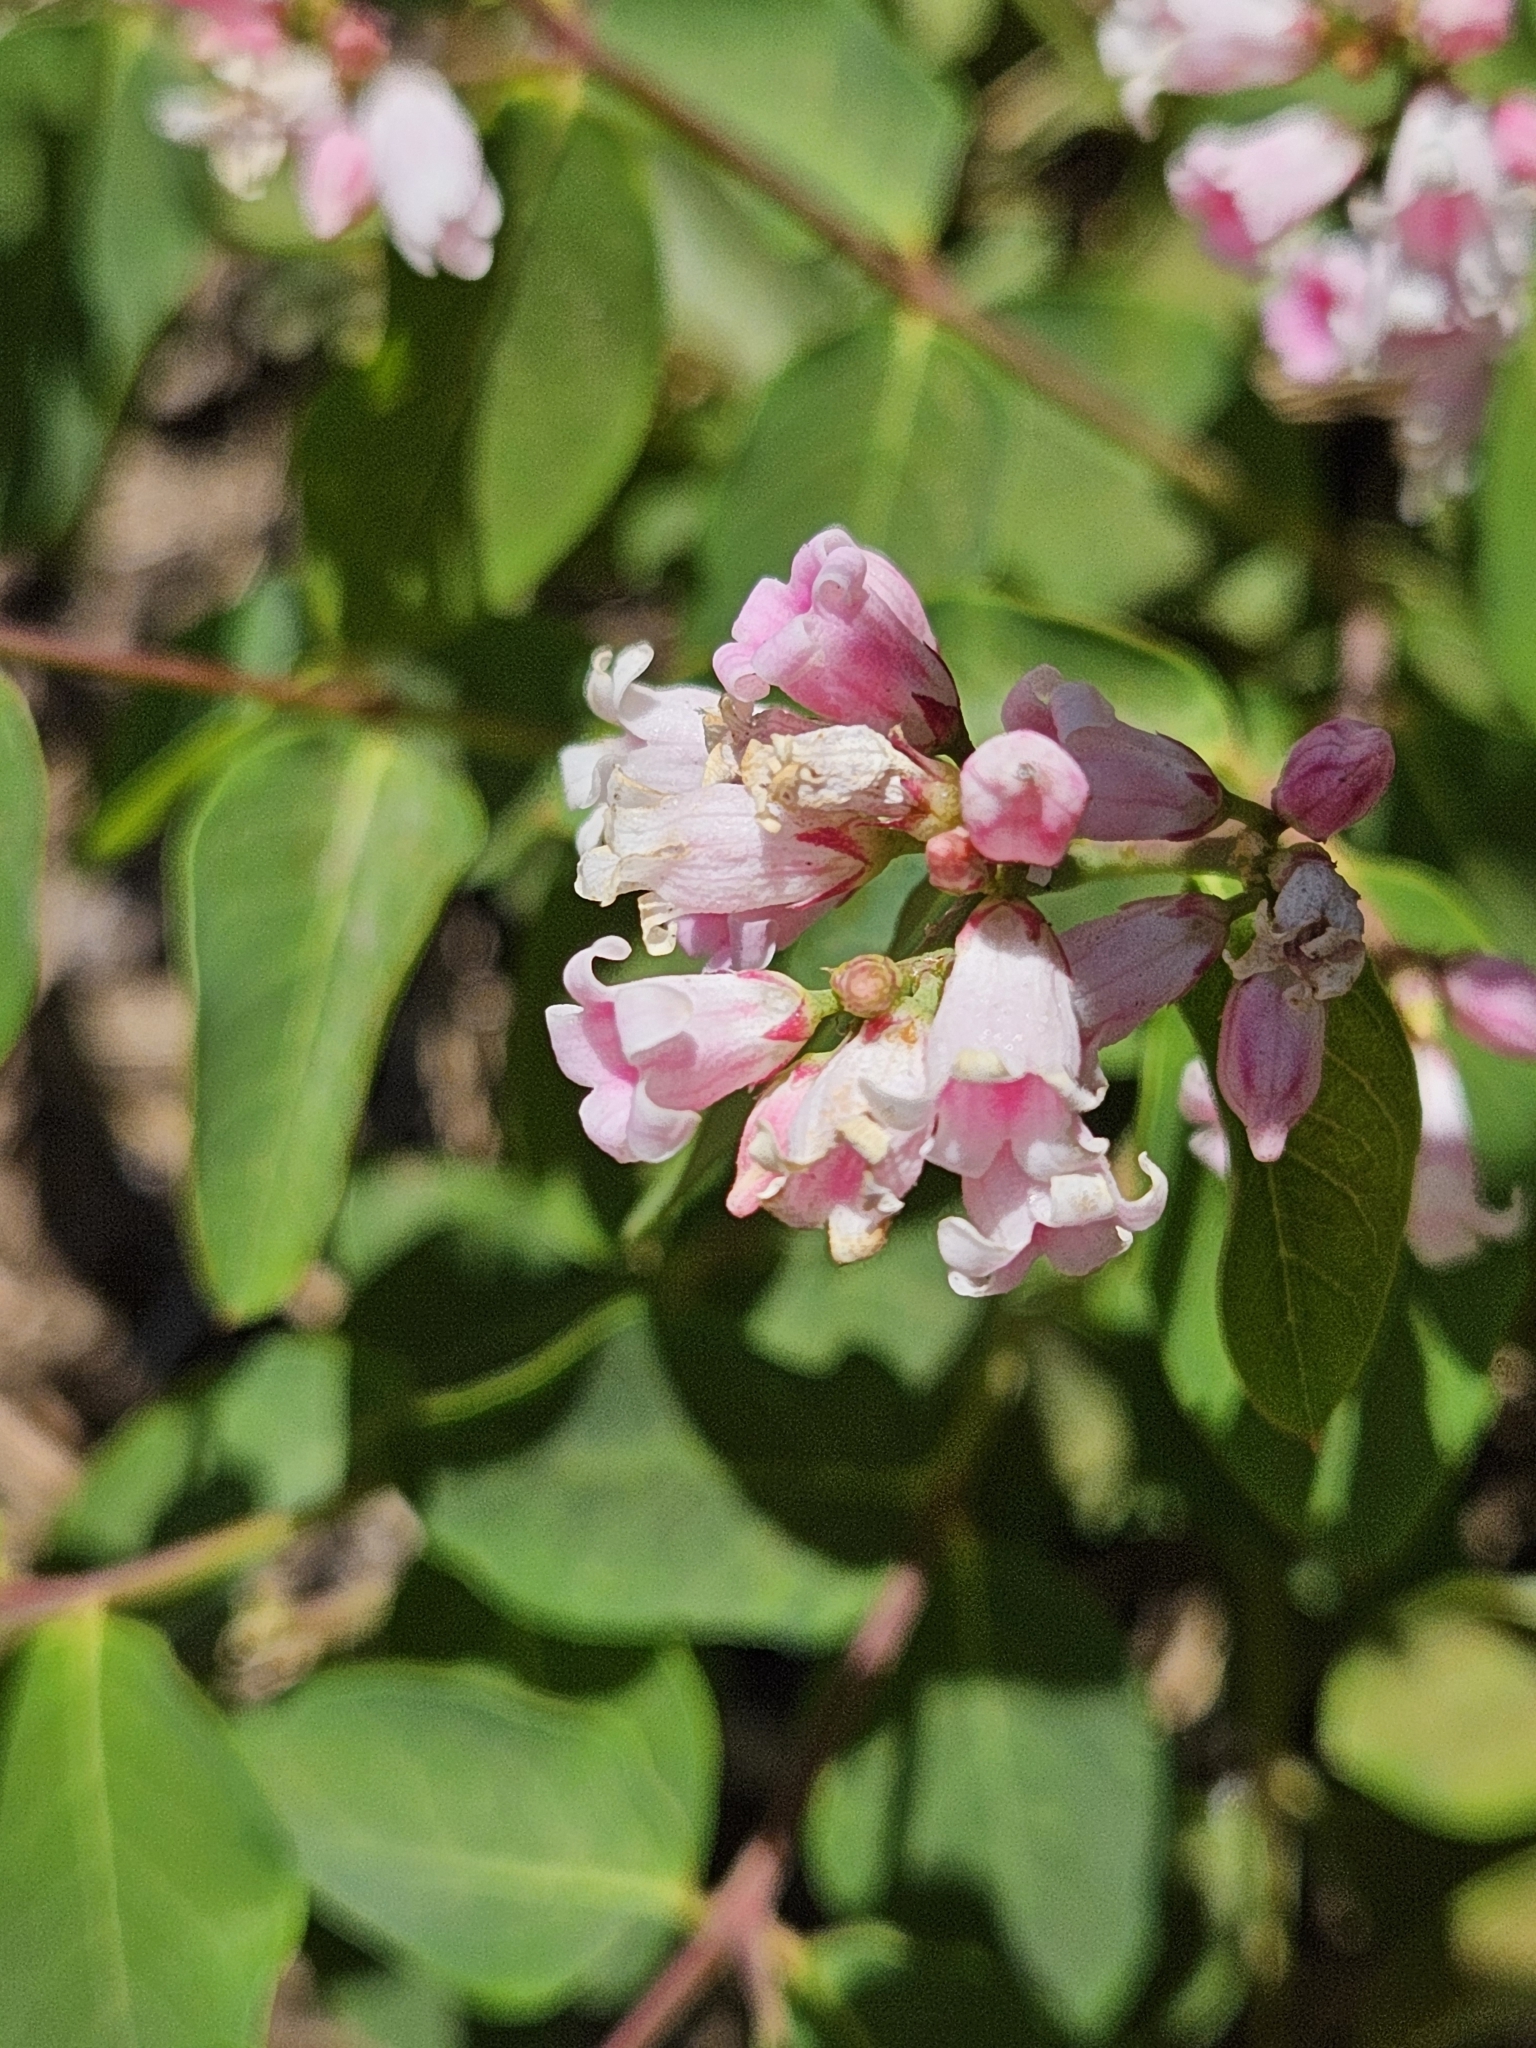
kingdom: Plantae
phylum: Tracheophyta
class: Magnoliopsida
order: Gentianales
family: Apocynaceae
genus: Apocynum
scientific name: Apocynum androsaemifolium
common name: Spreading dogbane
